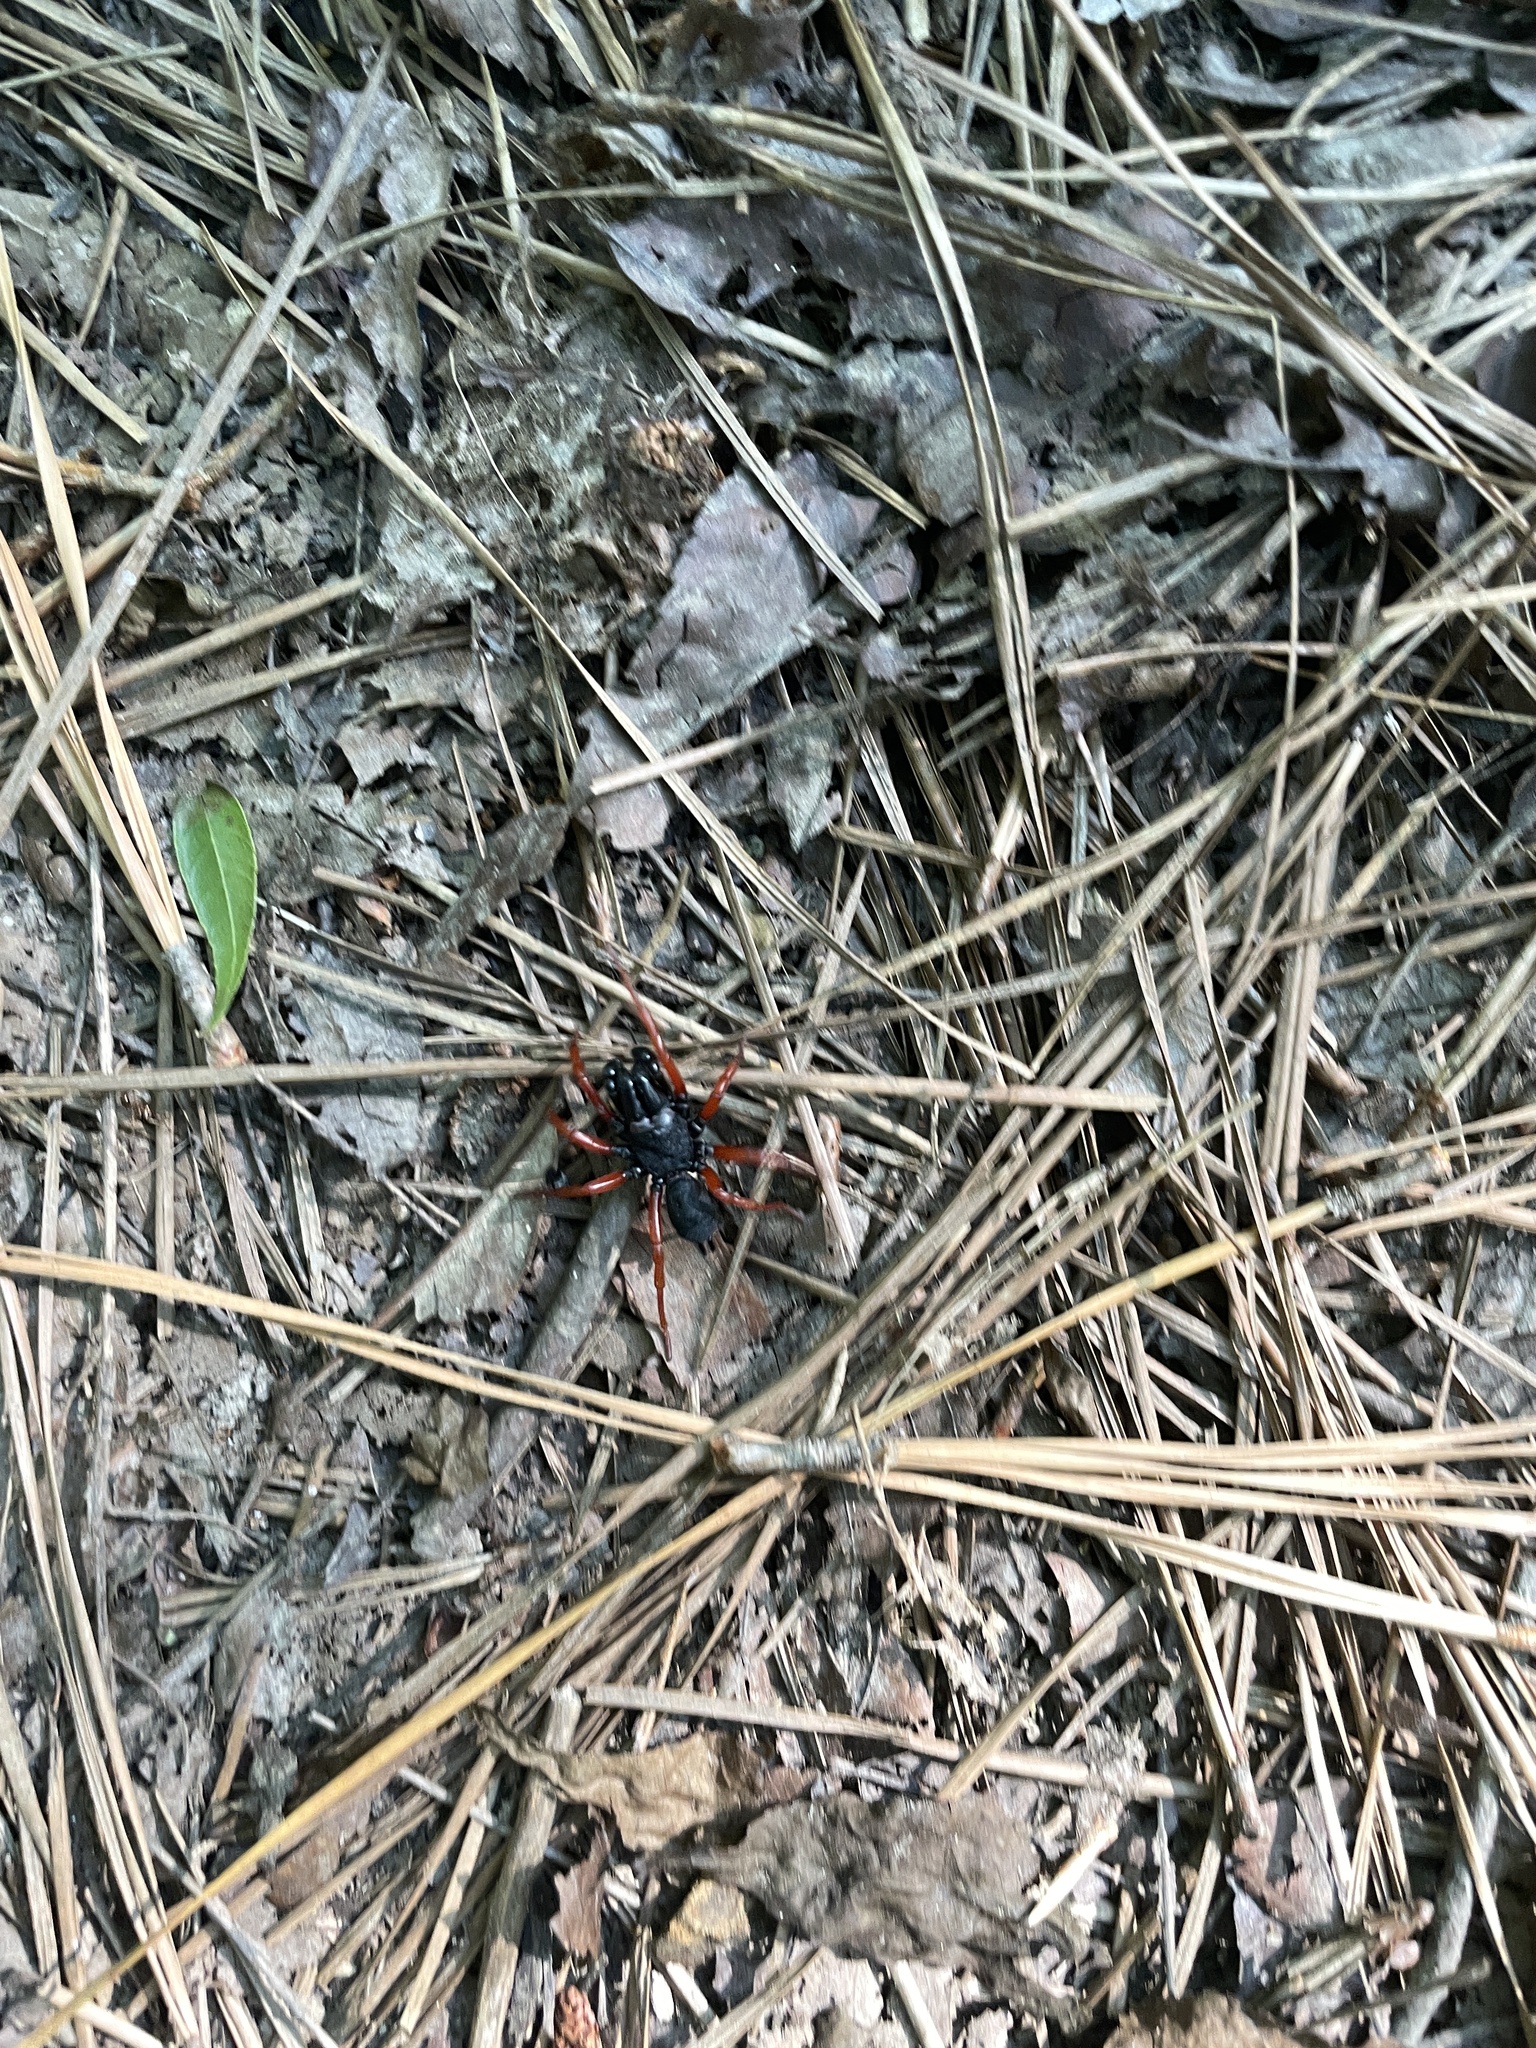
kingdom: Animalia
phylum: Arthropoda
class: Arachnida
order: Araneae
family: Atypidae
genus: Sphodros
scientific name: Sphodros rufipes
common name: Red-legged purseweb spider
